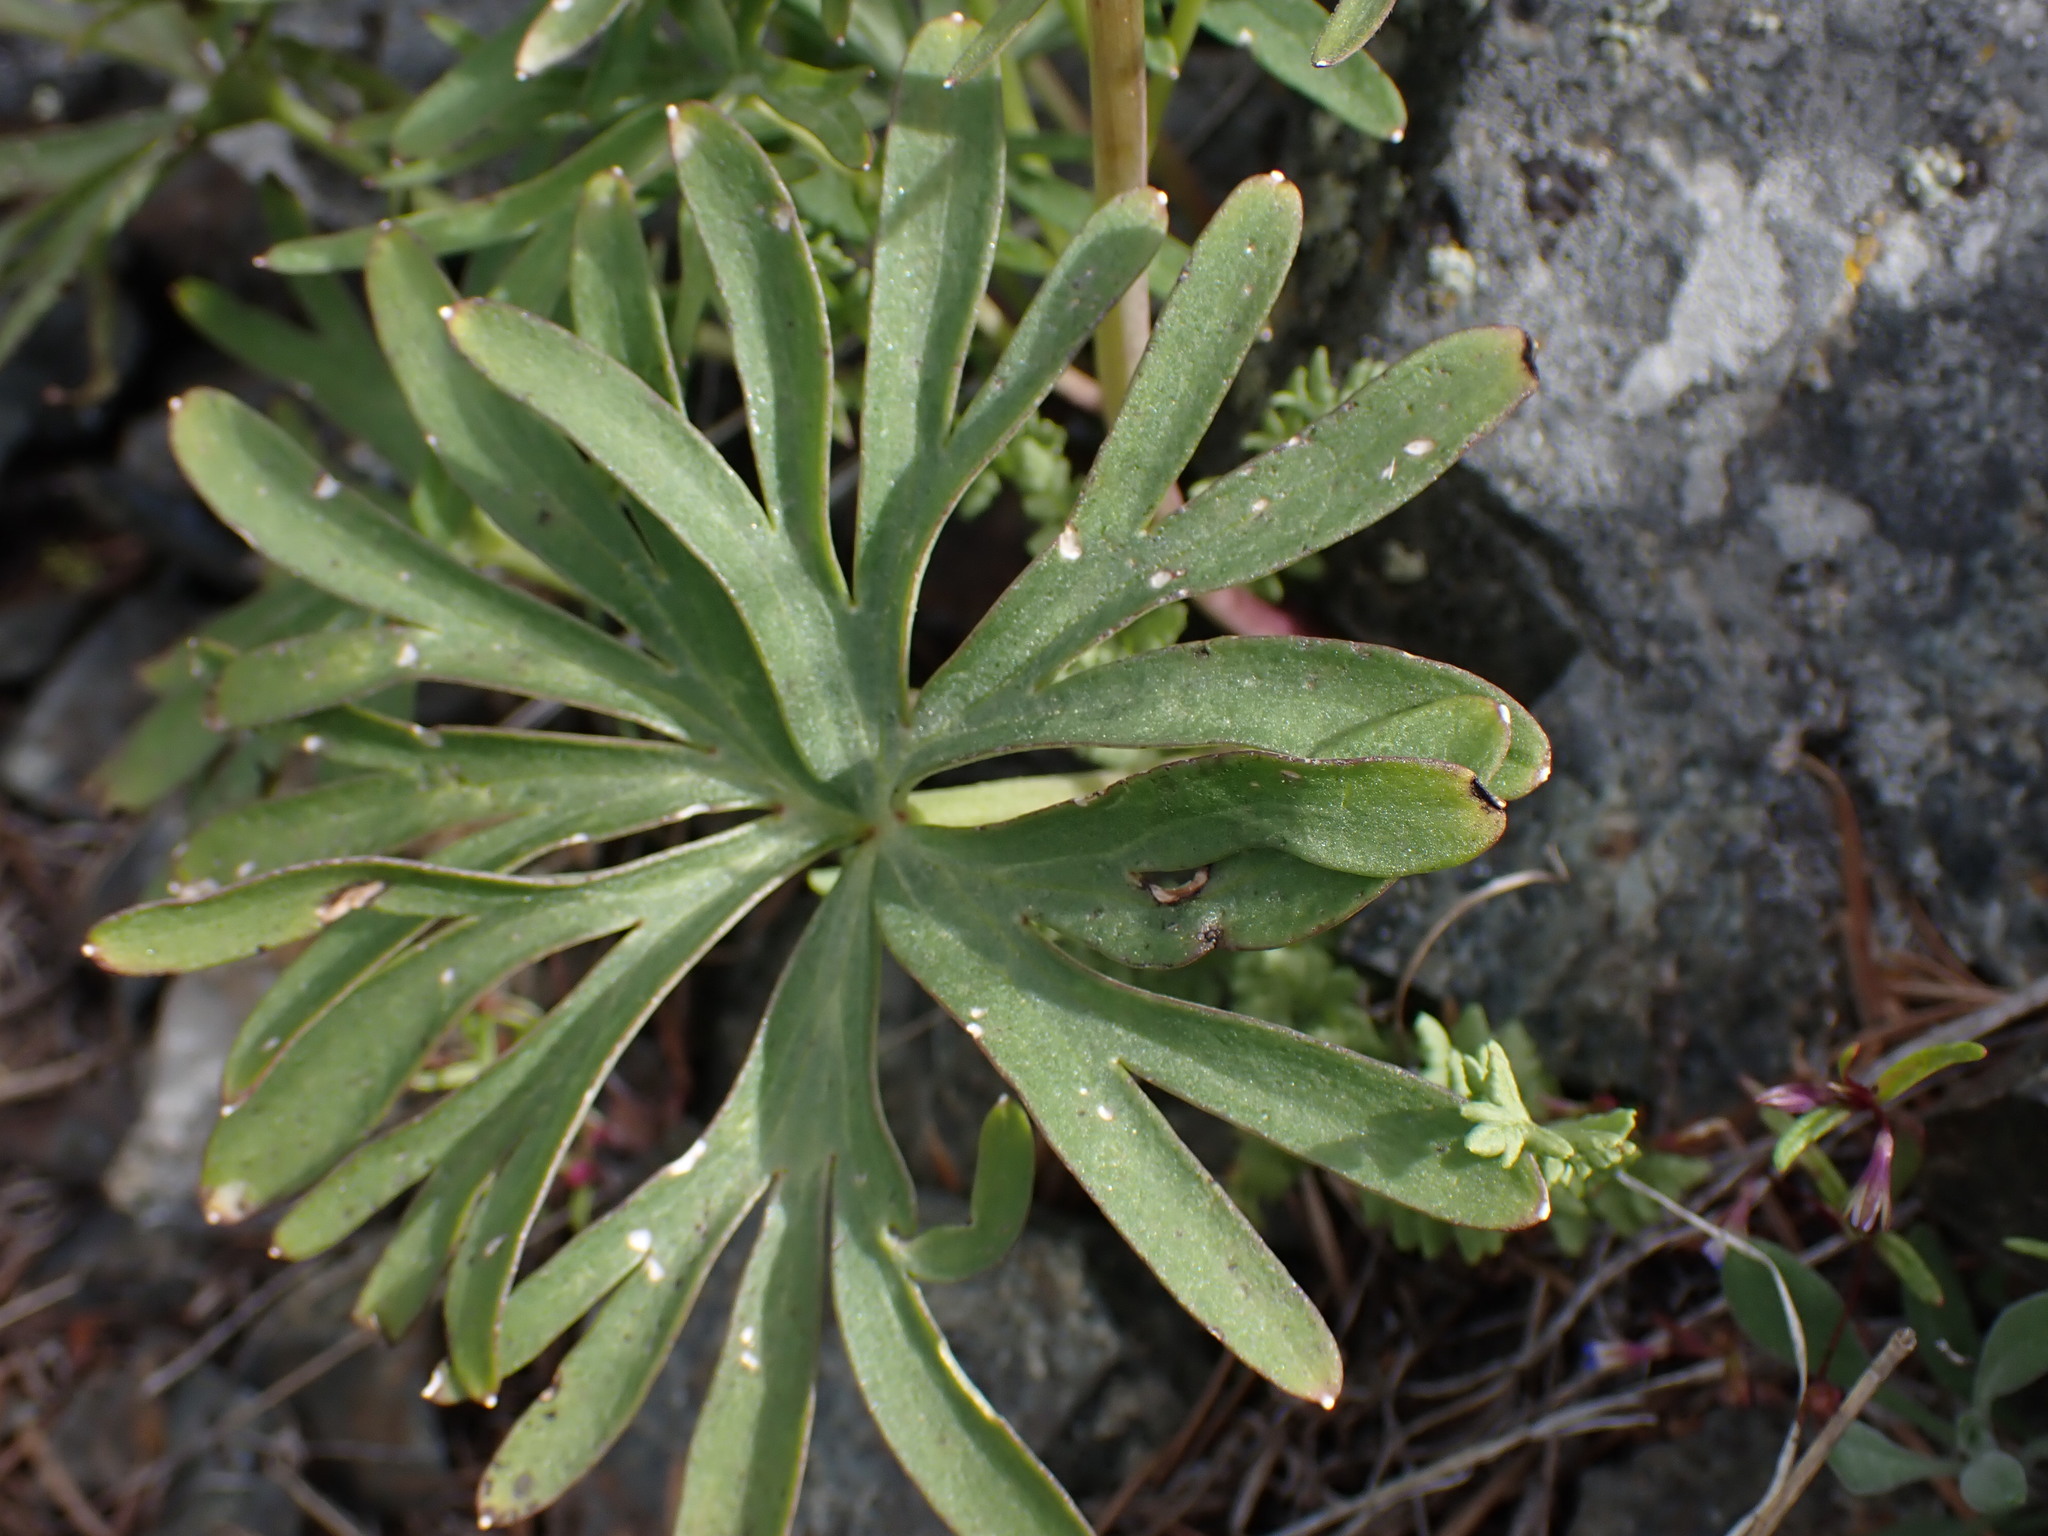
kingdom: Plantae
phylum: Tracheophyta
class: Magnoliopsida
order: Ranunculales
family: Ranunculaceae
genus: Delphinium
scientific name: Delphinium nuttallianum
